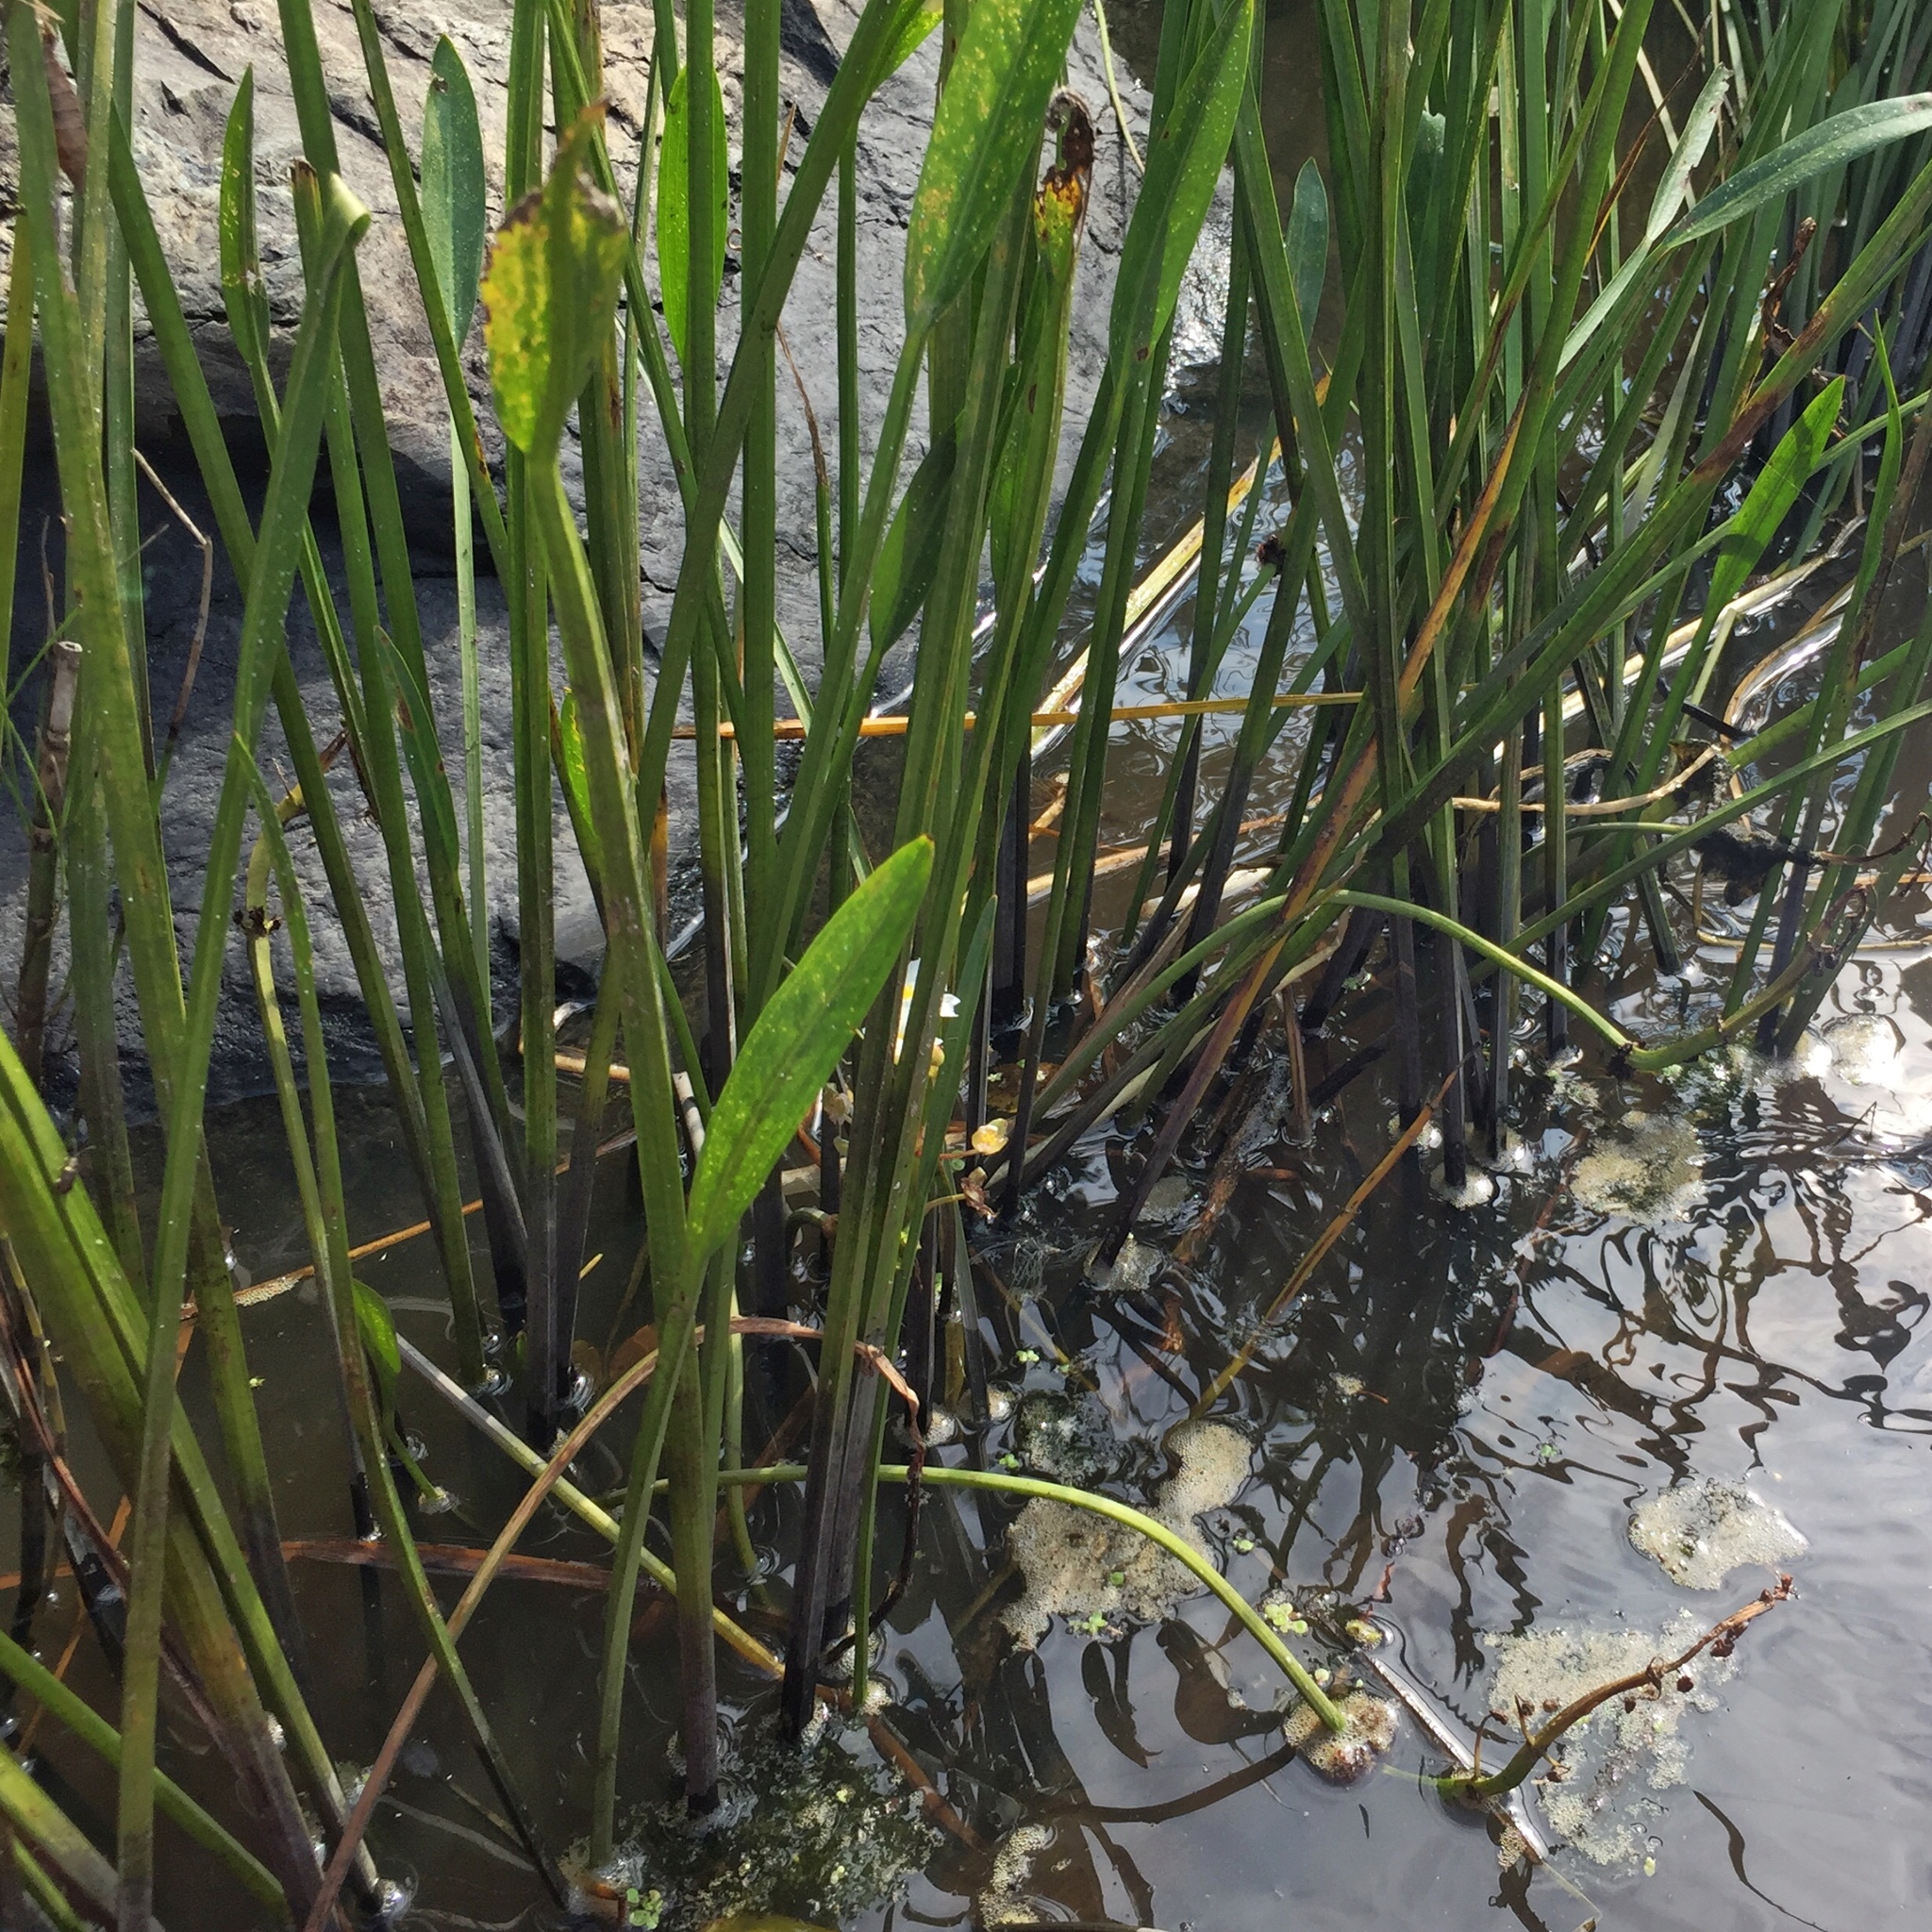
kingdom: Plantae
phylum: Tracheophyta
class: Liliopsida
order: Alismatales
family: Alismataceae
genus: Sagittaria
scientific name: Sagittaria rigida
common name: Canadian arrowhead
